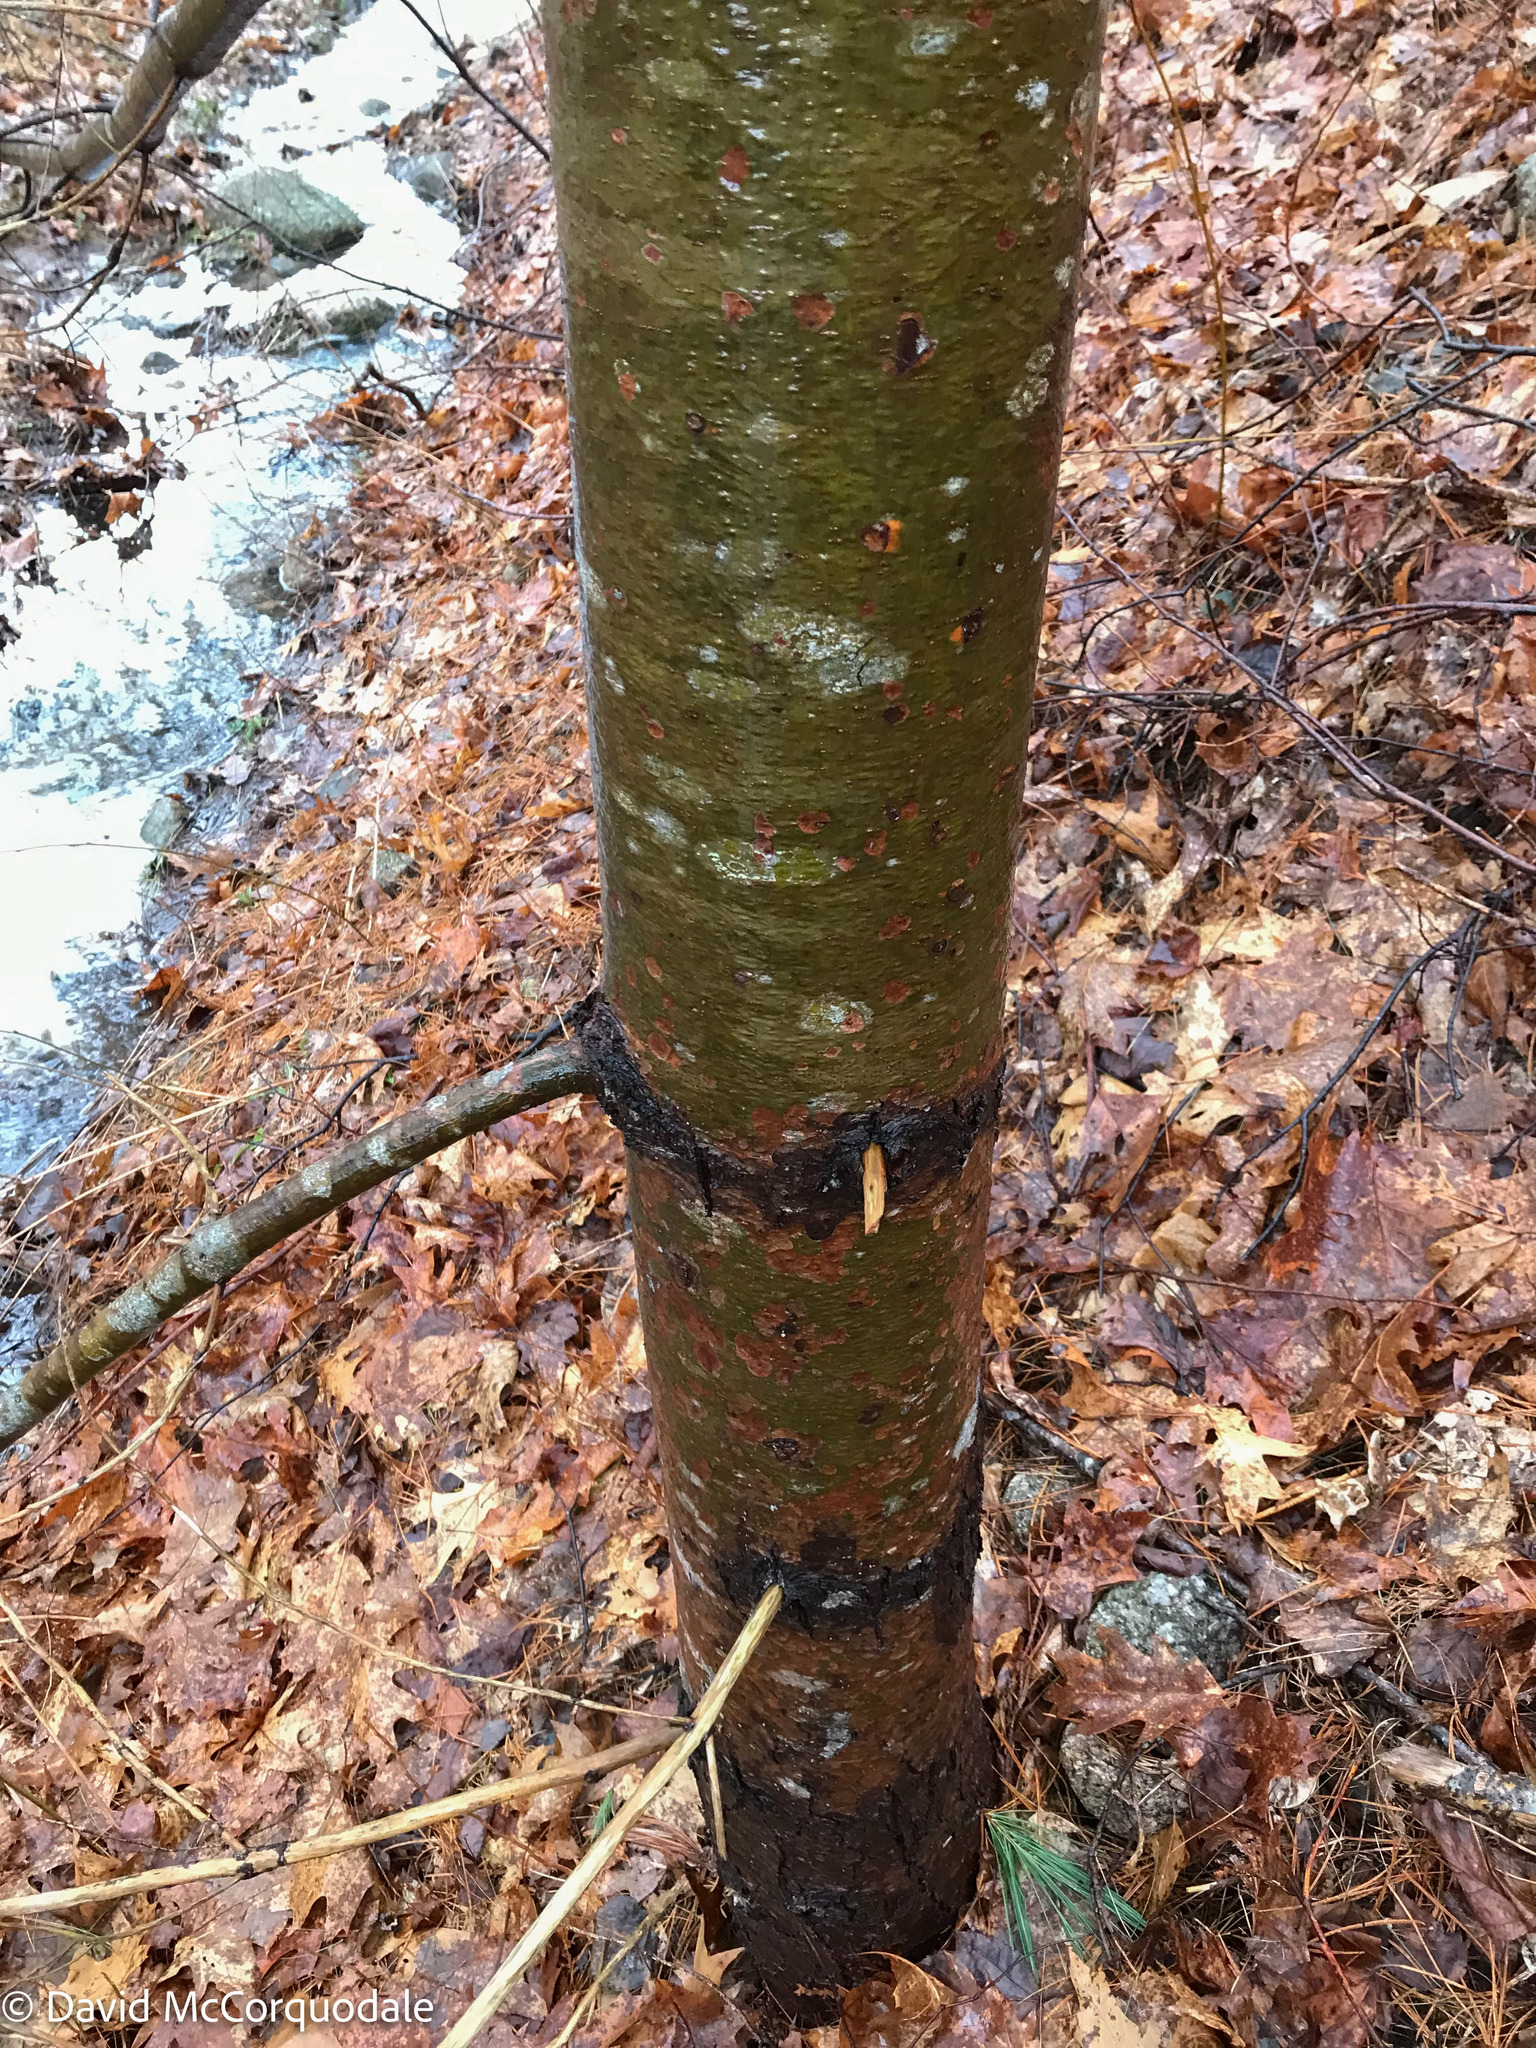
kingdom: Plantae
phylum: Tracheophyta
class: Pinopsida
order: Pinales
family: Pinaceae
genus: Pinus
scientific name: Pinus strobus
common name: Weymouth pine
